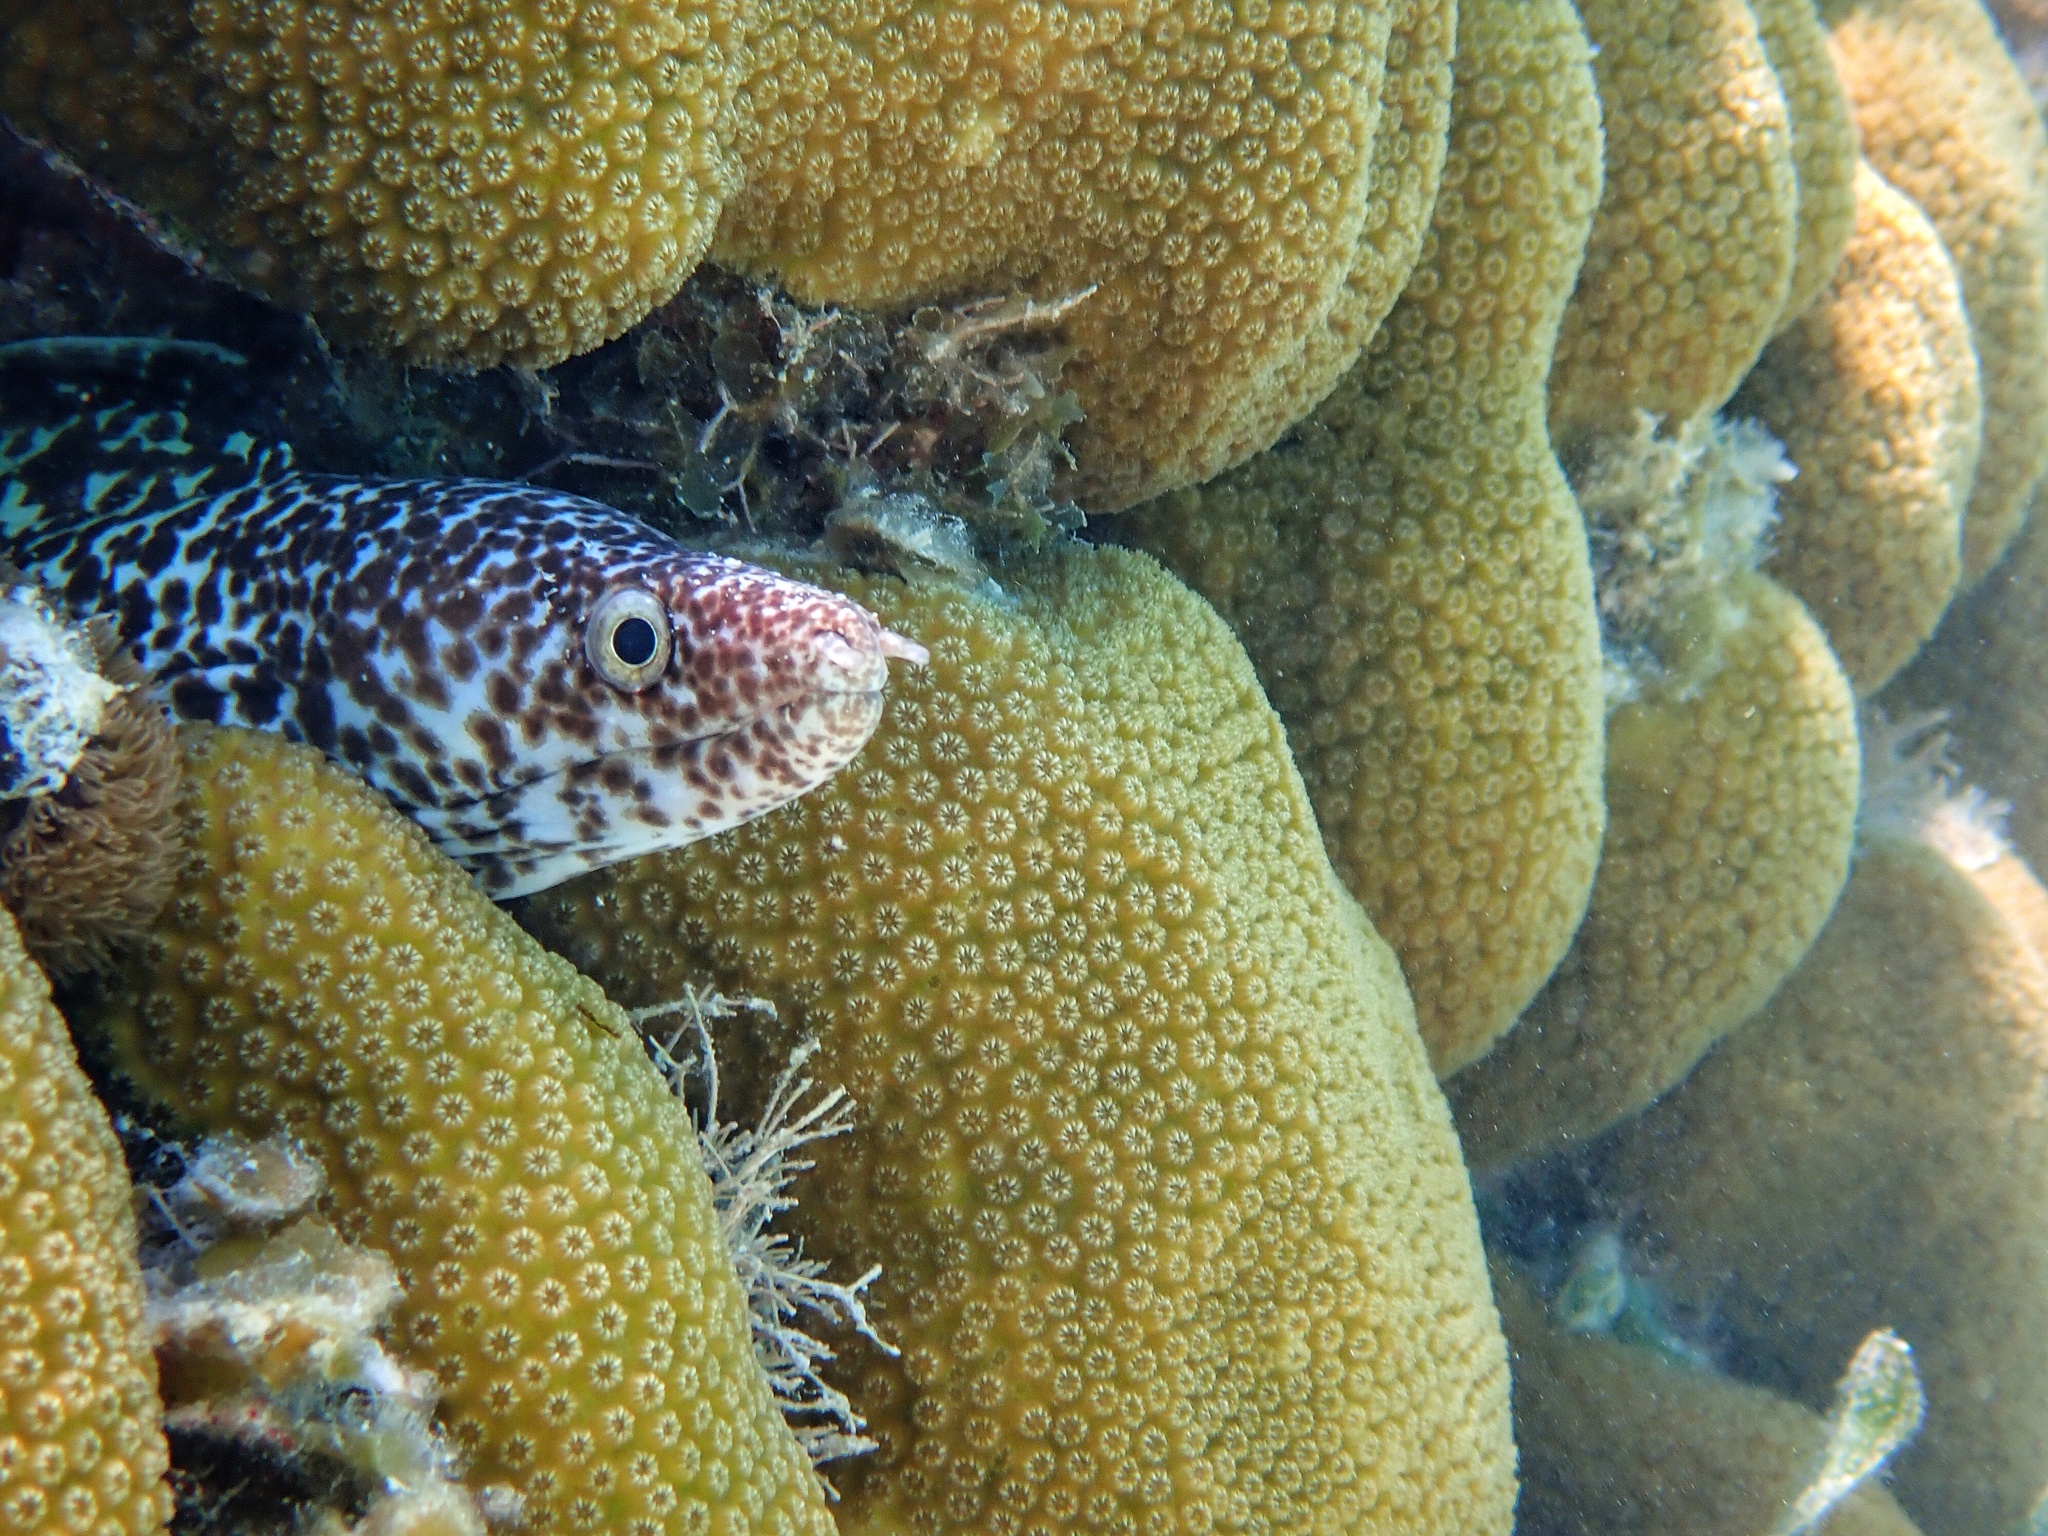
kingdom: Animalia
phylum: Chordata
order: Anguilliformes
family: Muraenidae
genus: Gymnothorax
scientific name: Gymnothorax moringa
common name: Spotted moray
